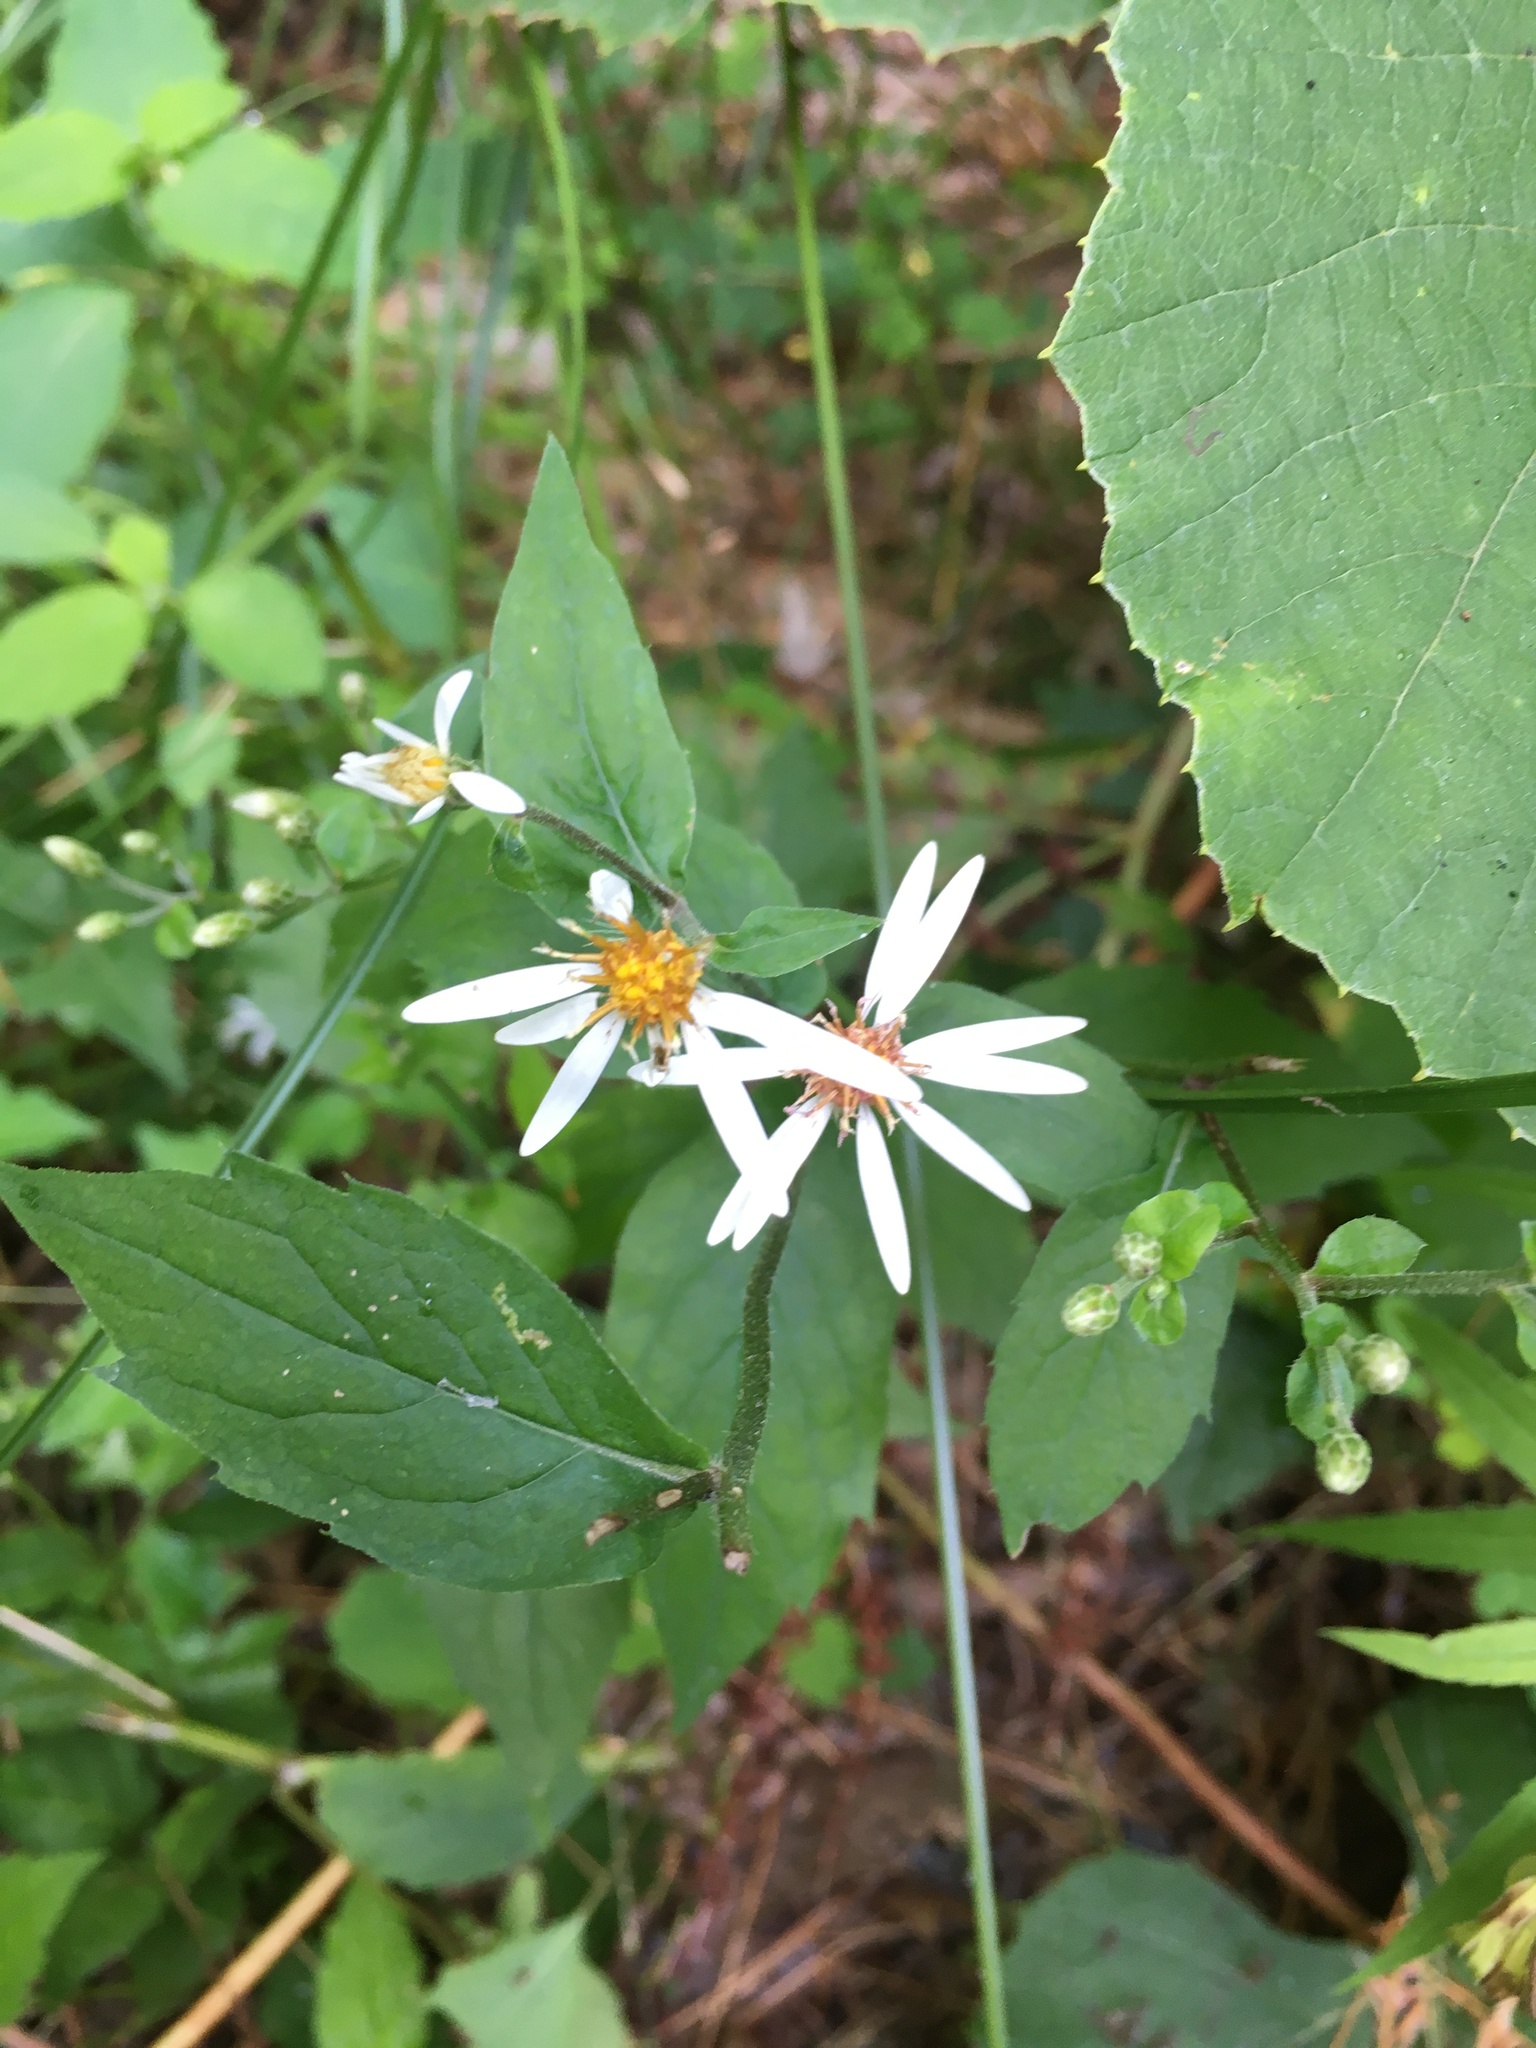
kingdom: Plantae
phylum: Tracheophyta
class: Magnoliopsida
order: Asterales
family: Asteraceae
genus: Eurybia
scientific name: Eurybia divaricata
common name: White wood aster
